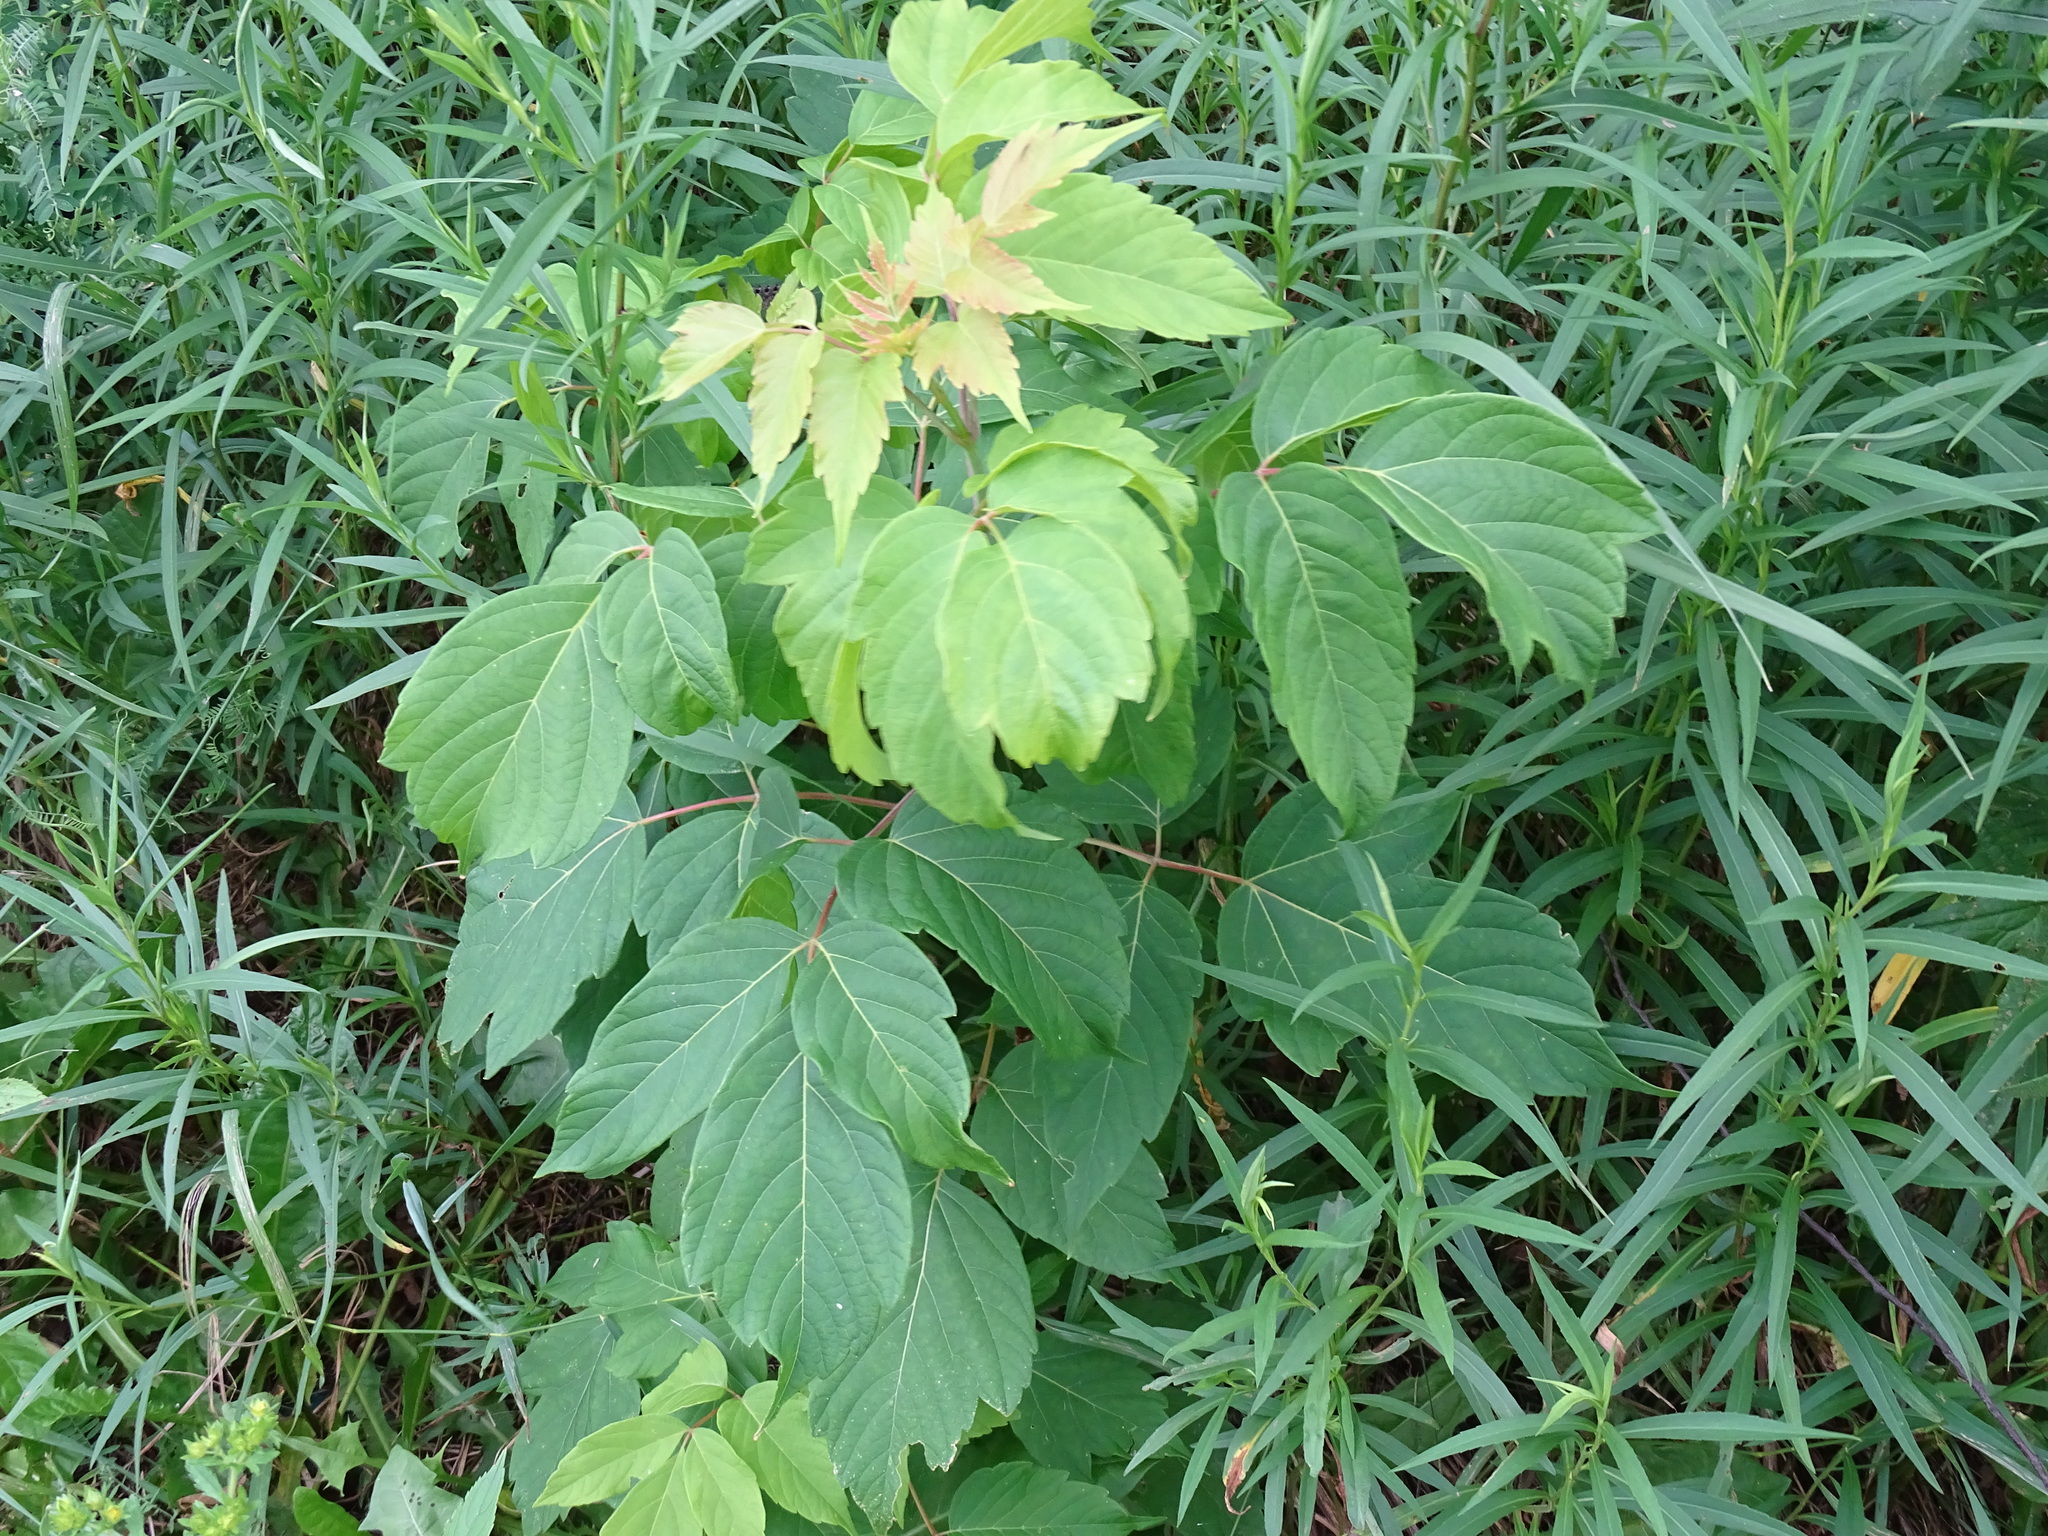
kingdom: Plantae
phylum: Tracheophyta
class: Magnoliopsida
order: Sapindales
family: Sapindaceae
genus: Acer
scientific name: Acer negundo
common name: Ashleaf maple
